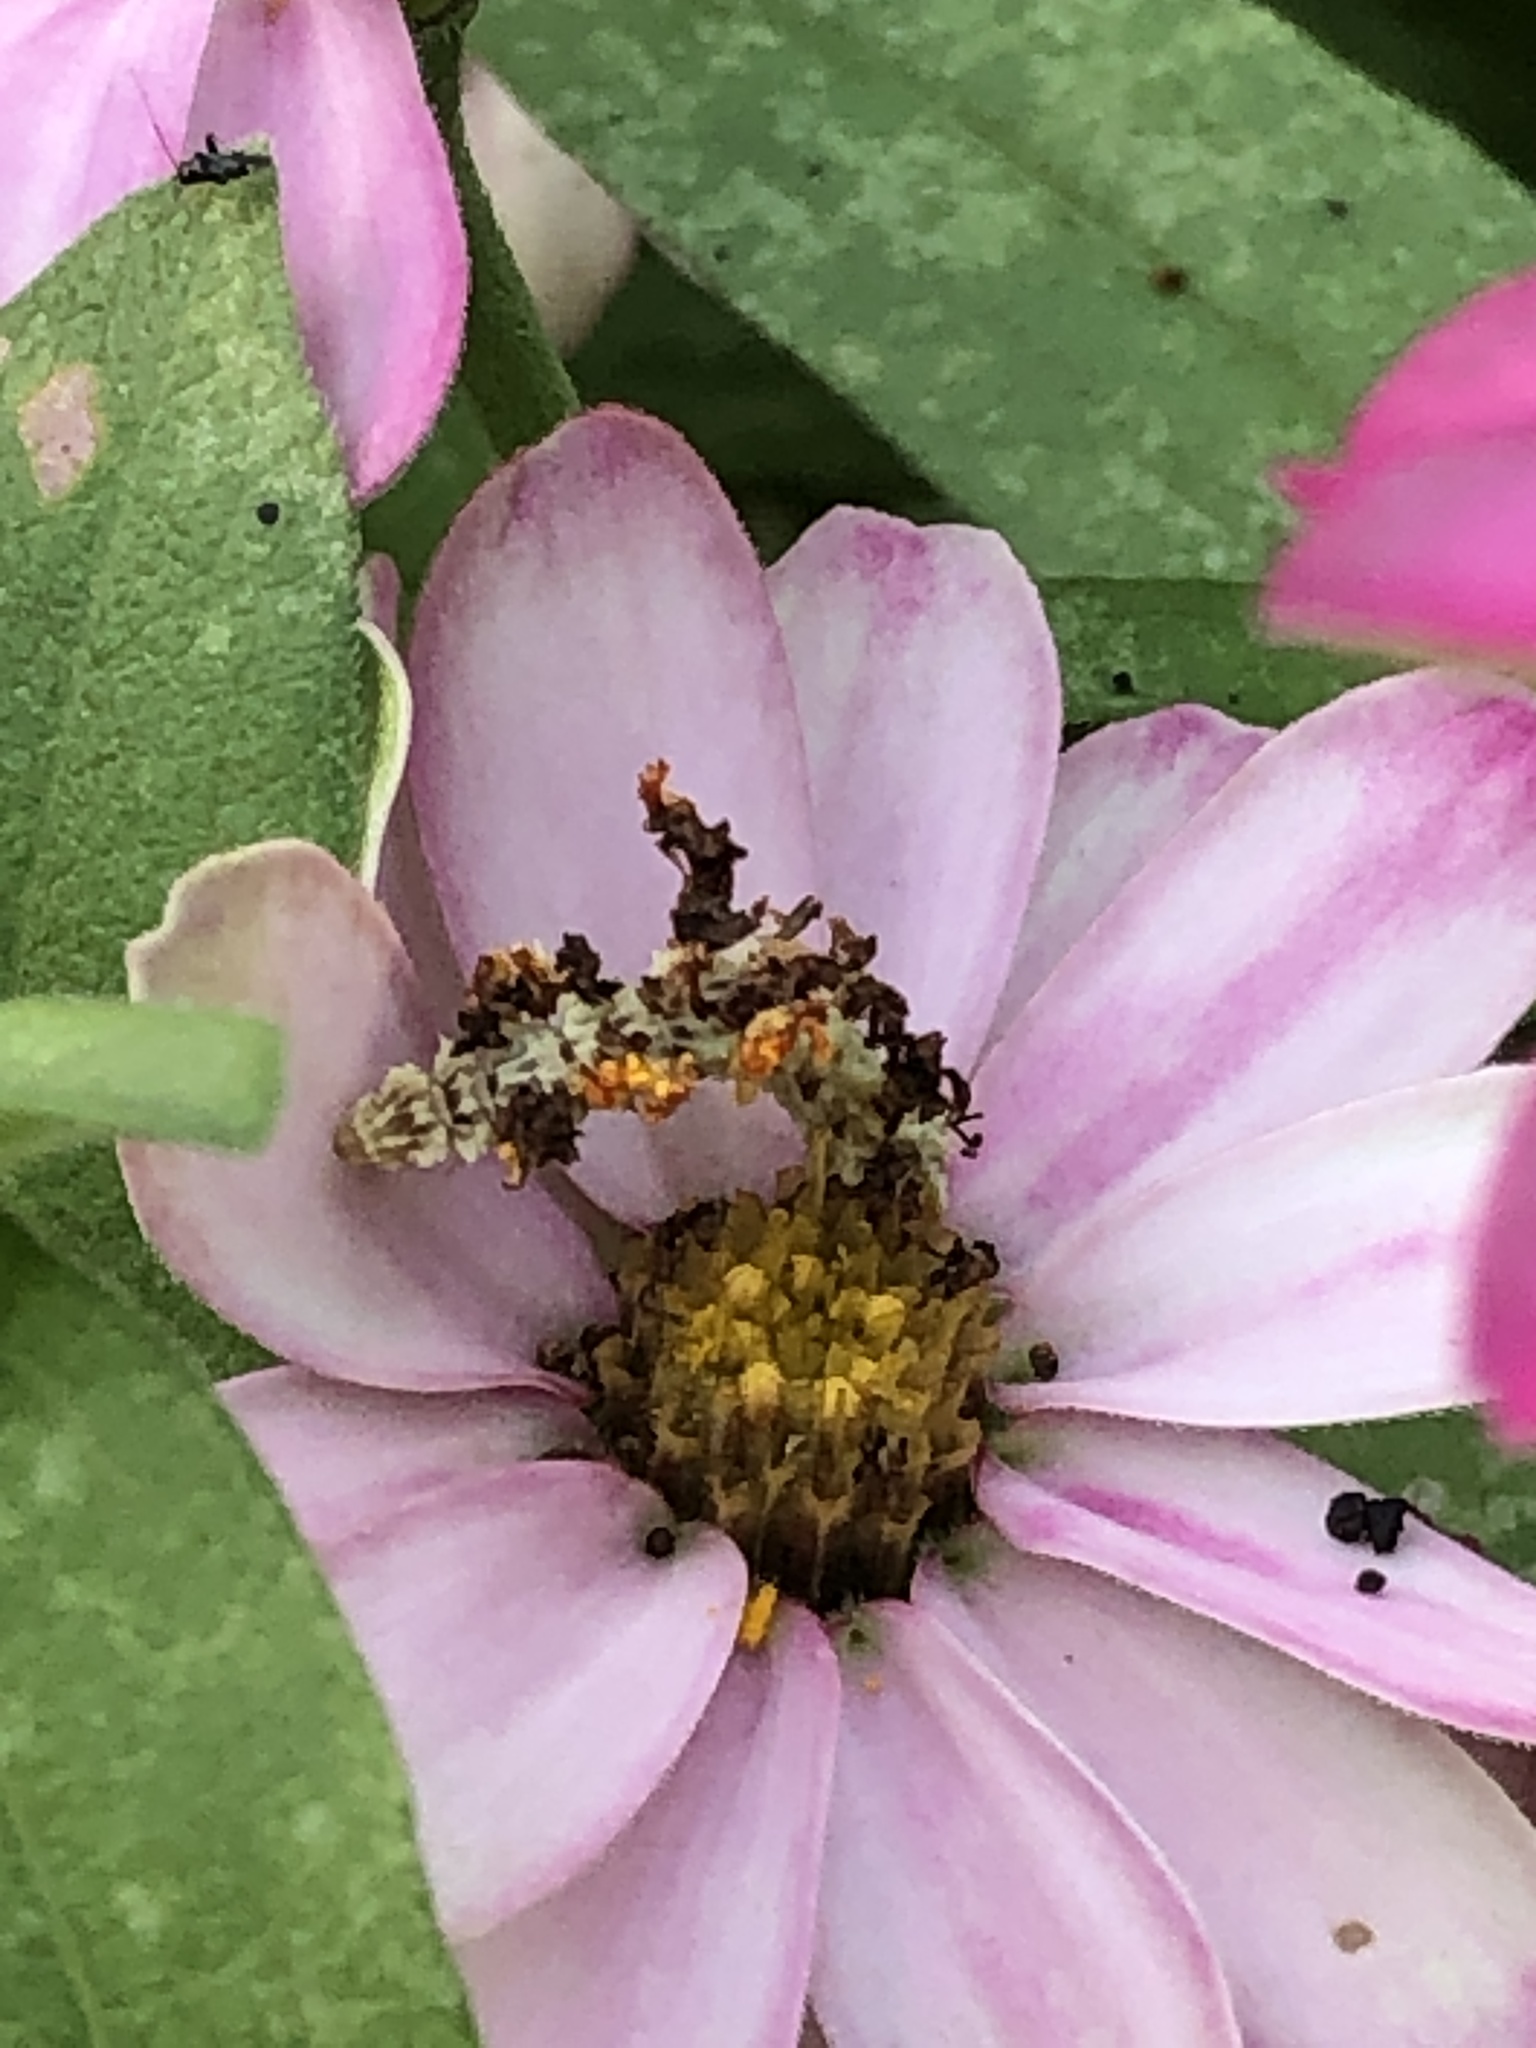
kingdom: Animalia
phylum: Arthropoda
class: Insecta
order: Lepidoptera
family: Geometridae
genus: Synchlora
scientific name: Synchlora aerata
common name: Wavy-lined emerald
